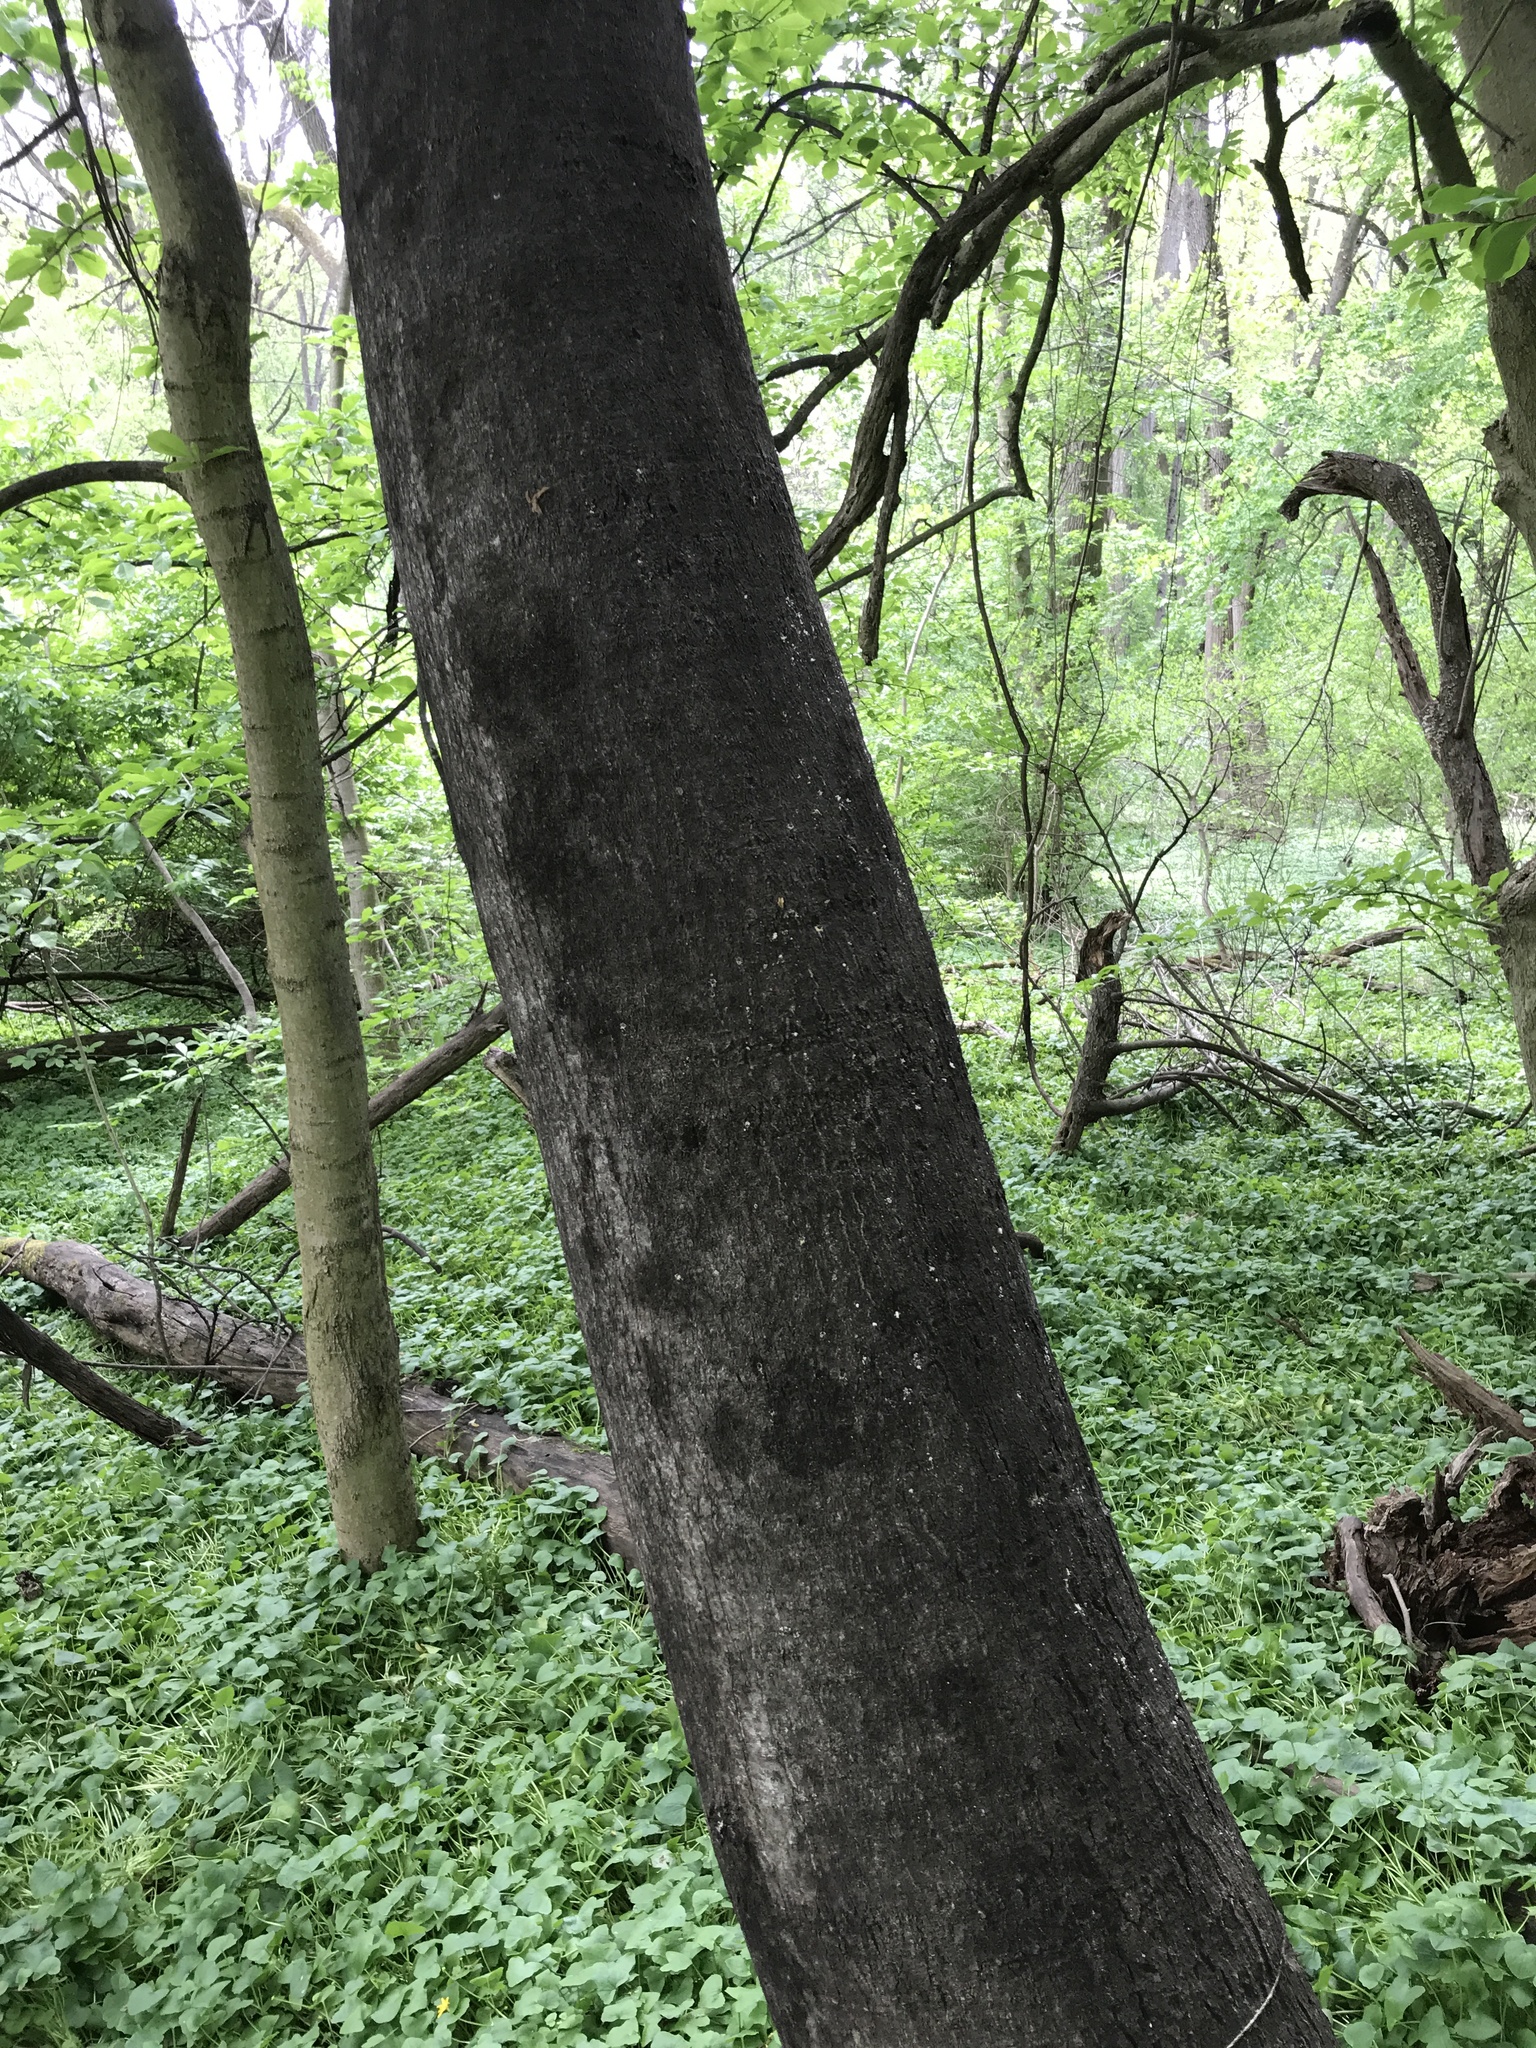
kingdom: Plantae
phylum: Tracheophyta
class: Magnoliopsida
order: Sapindales
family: Simaroubaceae
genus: Ailanthus
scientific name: Ailanthus altissima
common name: Tree-of-heaven
